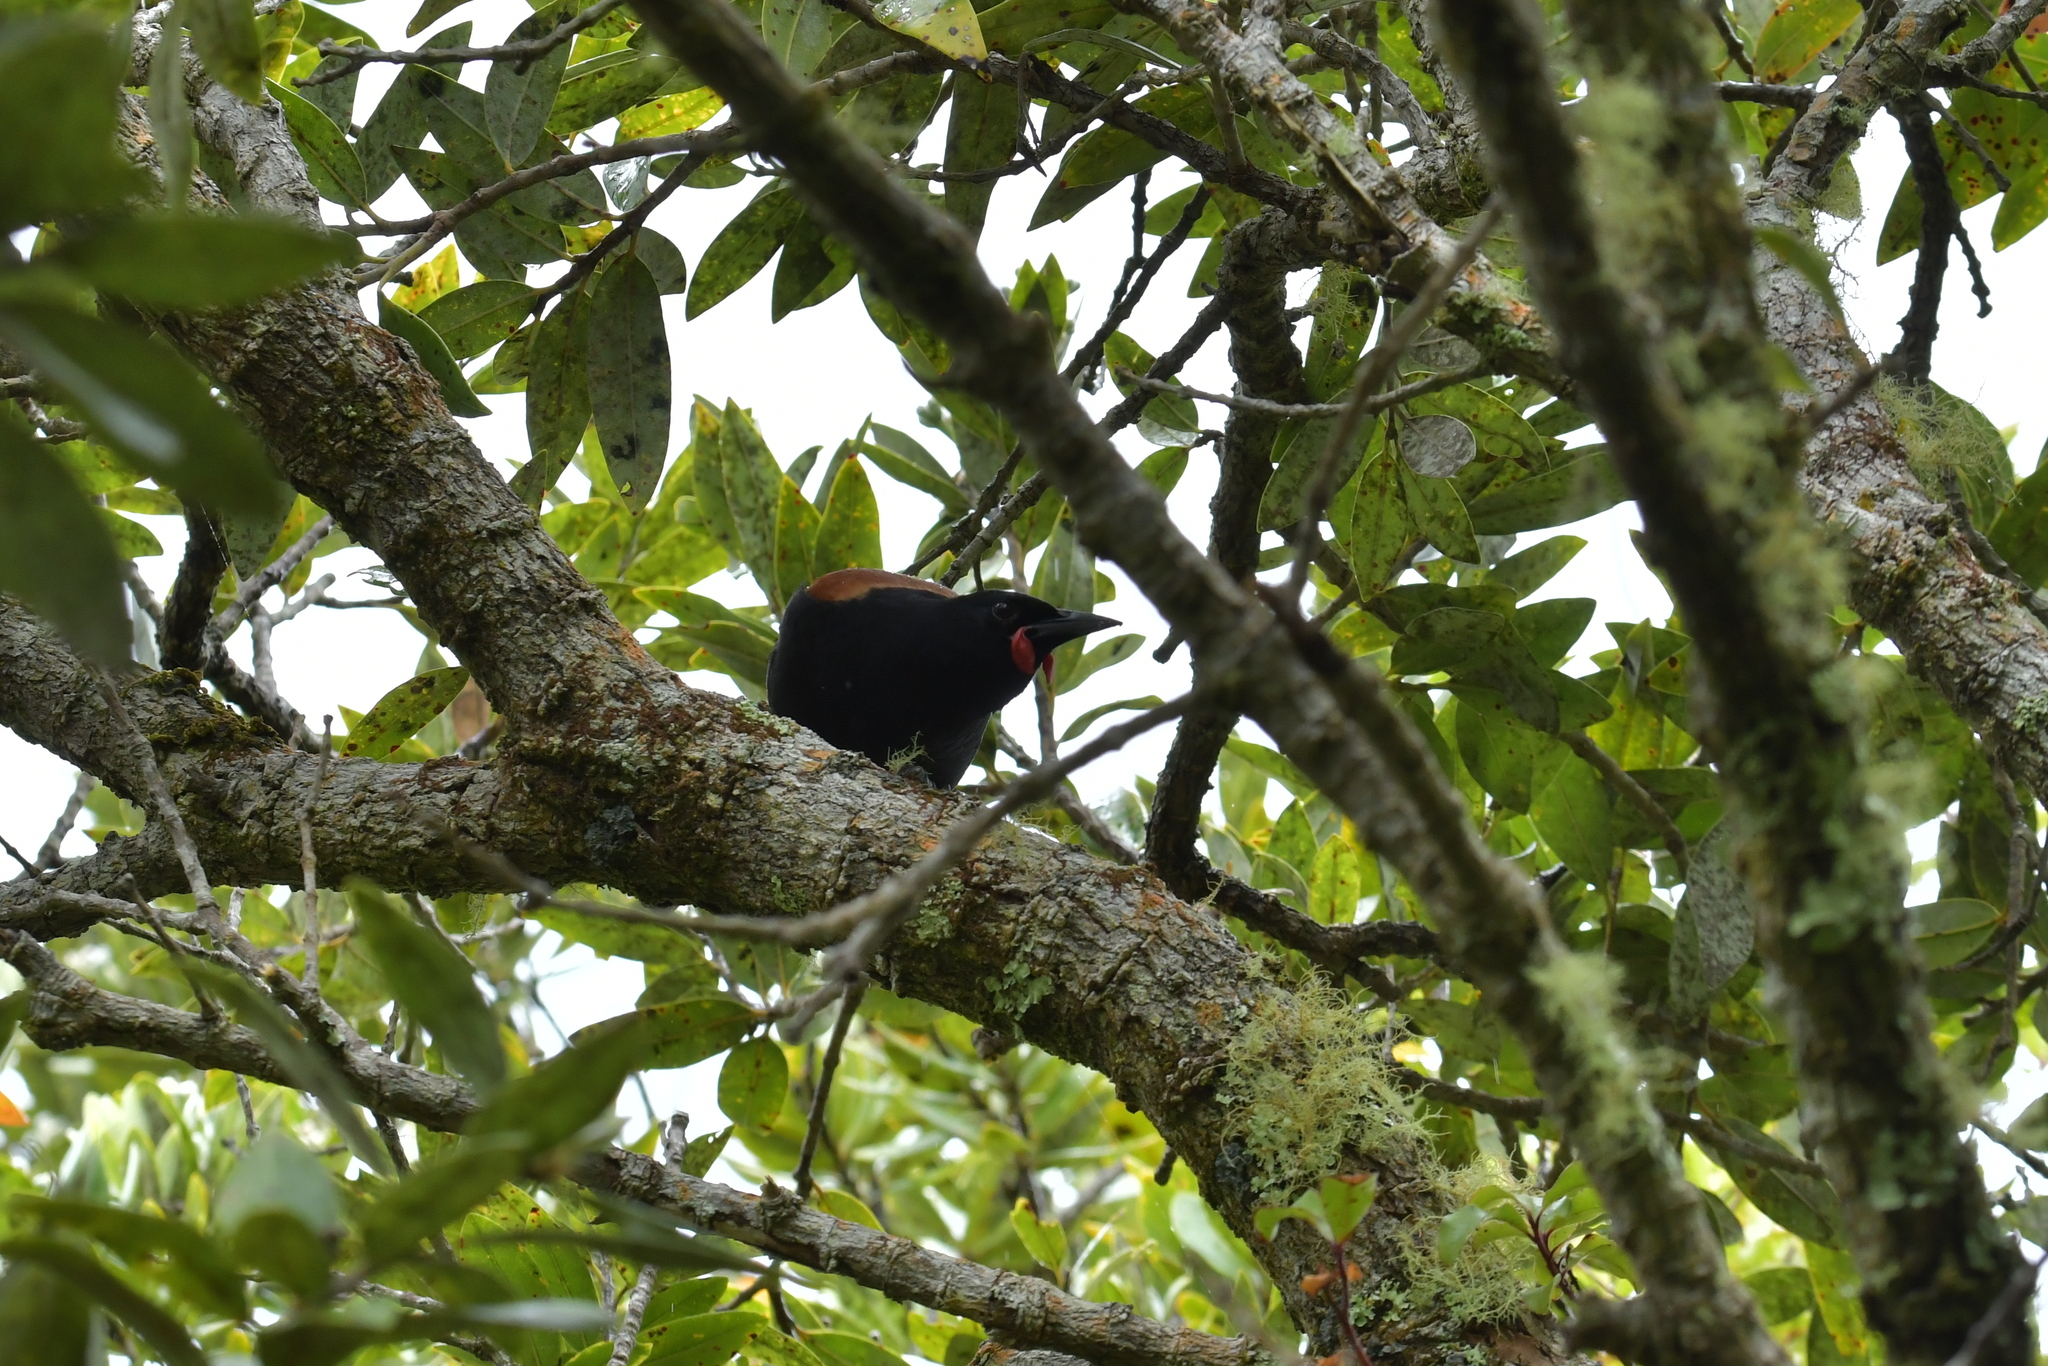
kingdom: Animalia
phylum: Chordata
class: Aves
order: Passeriformes
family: Callaeatidae
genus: Philesturnus
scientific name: Philesturnus carunculatus
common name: South island saddleback
